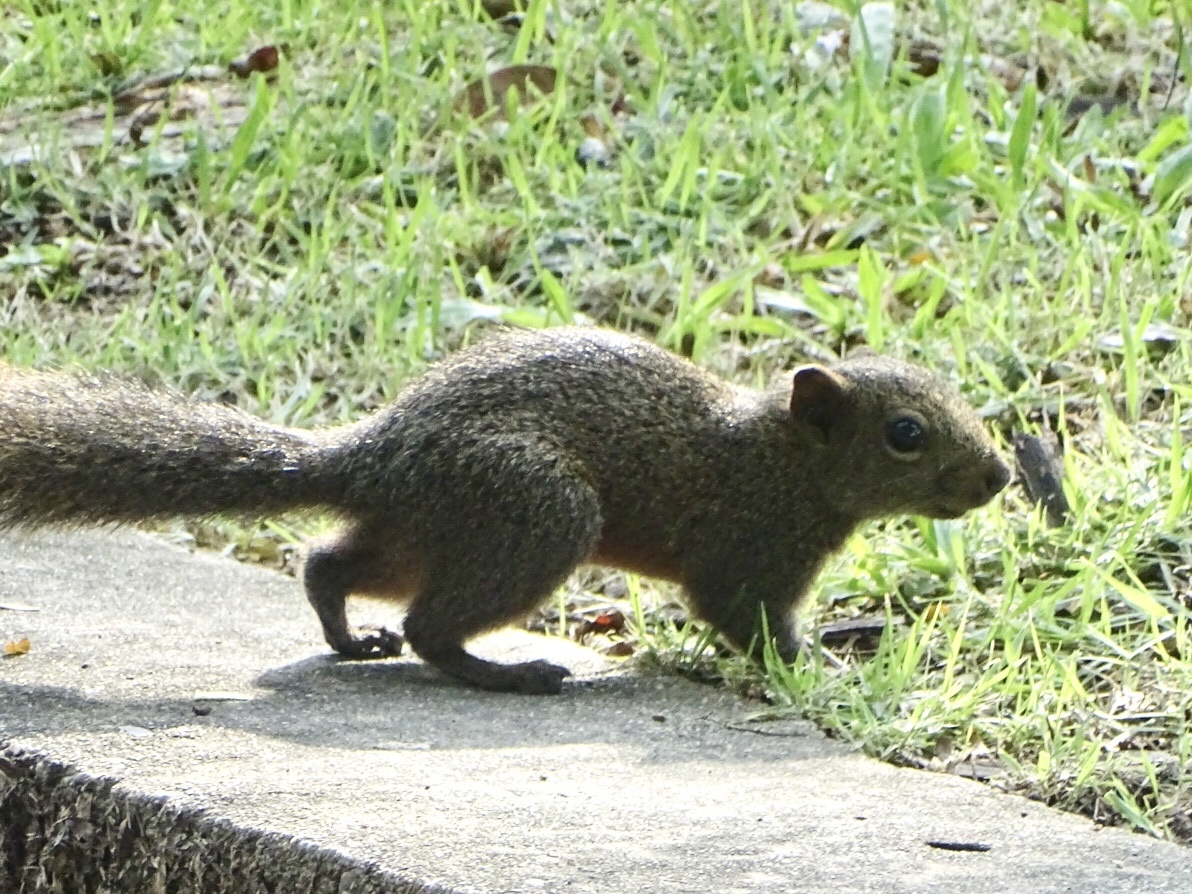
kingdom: Animalia
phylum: Chordata
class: Mammalia
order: Rodentia
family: Sciuridae
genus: Callosciurus
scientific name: Callosciurus erythraeus
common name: Pallas's squirrel
